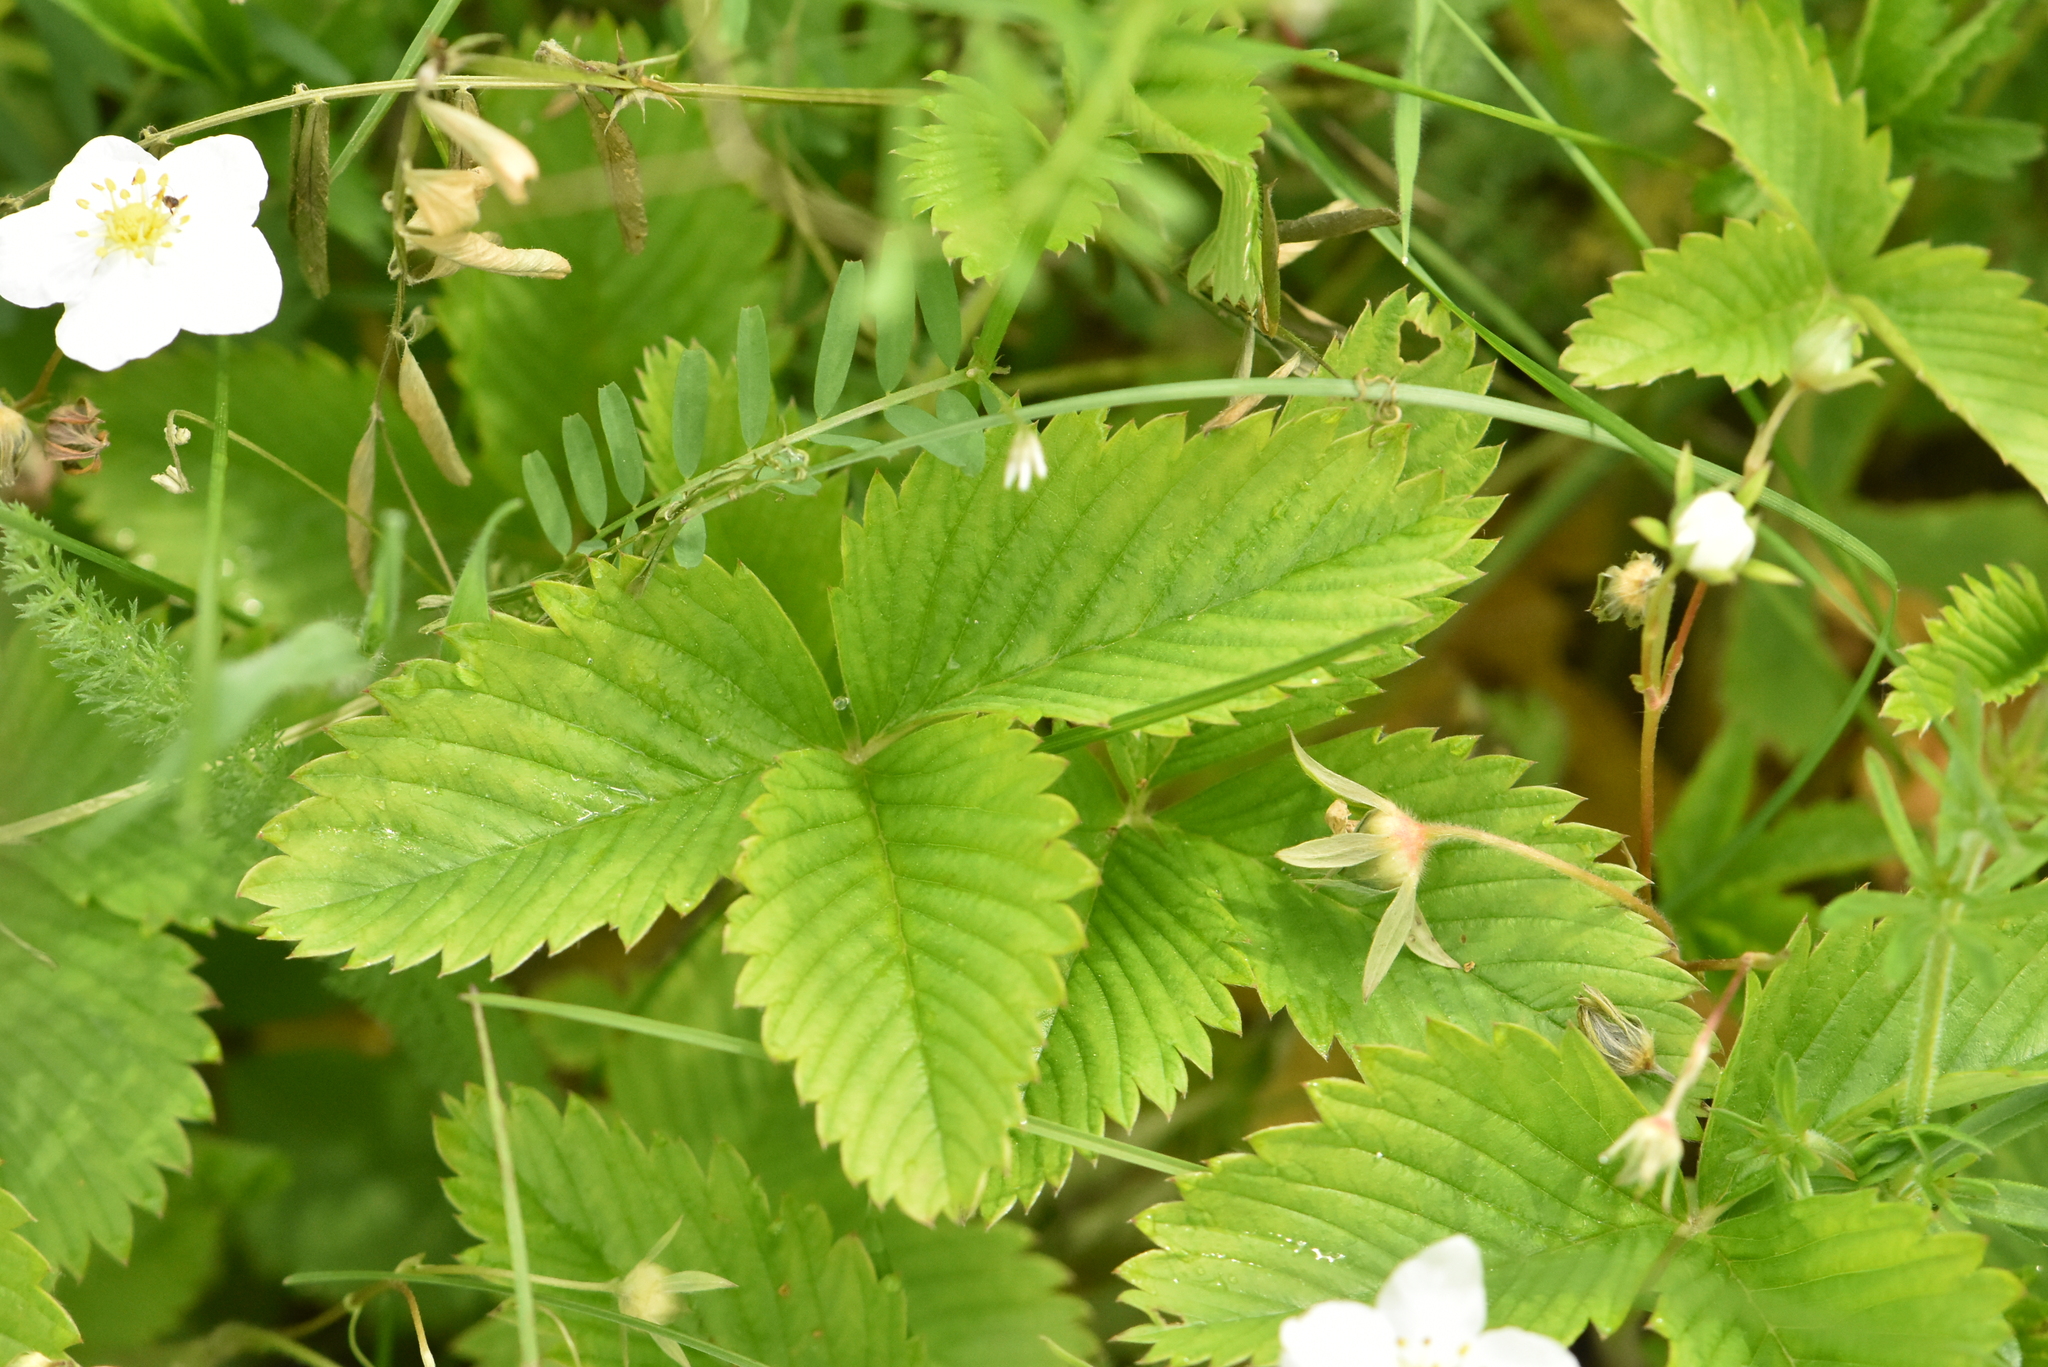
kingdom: Plantae
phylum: Tracheophyta
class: Magnoliopsida
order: Rosales
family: Rosaceae
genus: Fragaria
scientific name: Fragaria viridis
